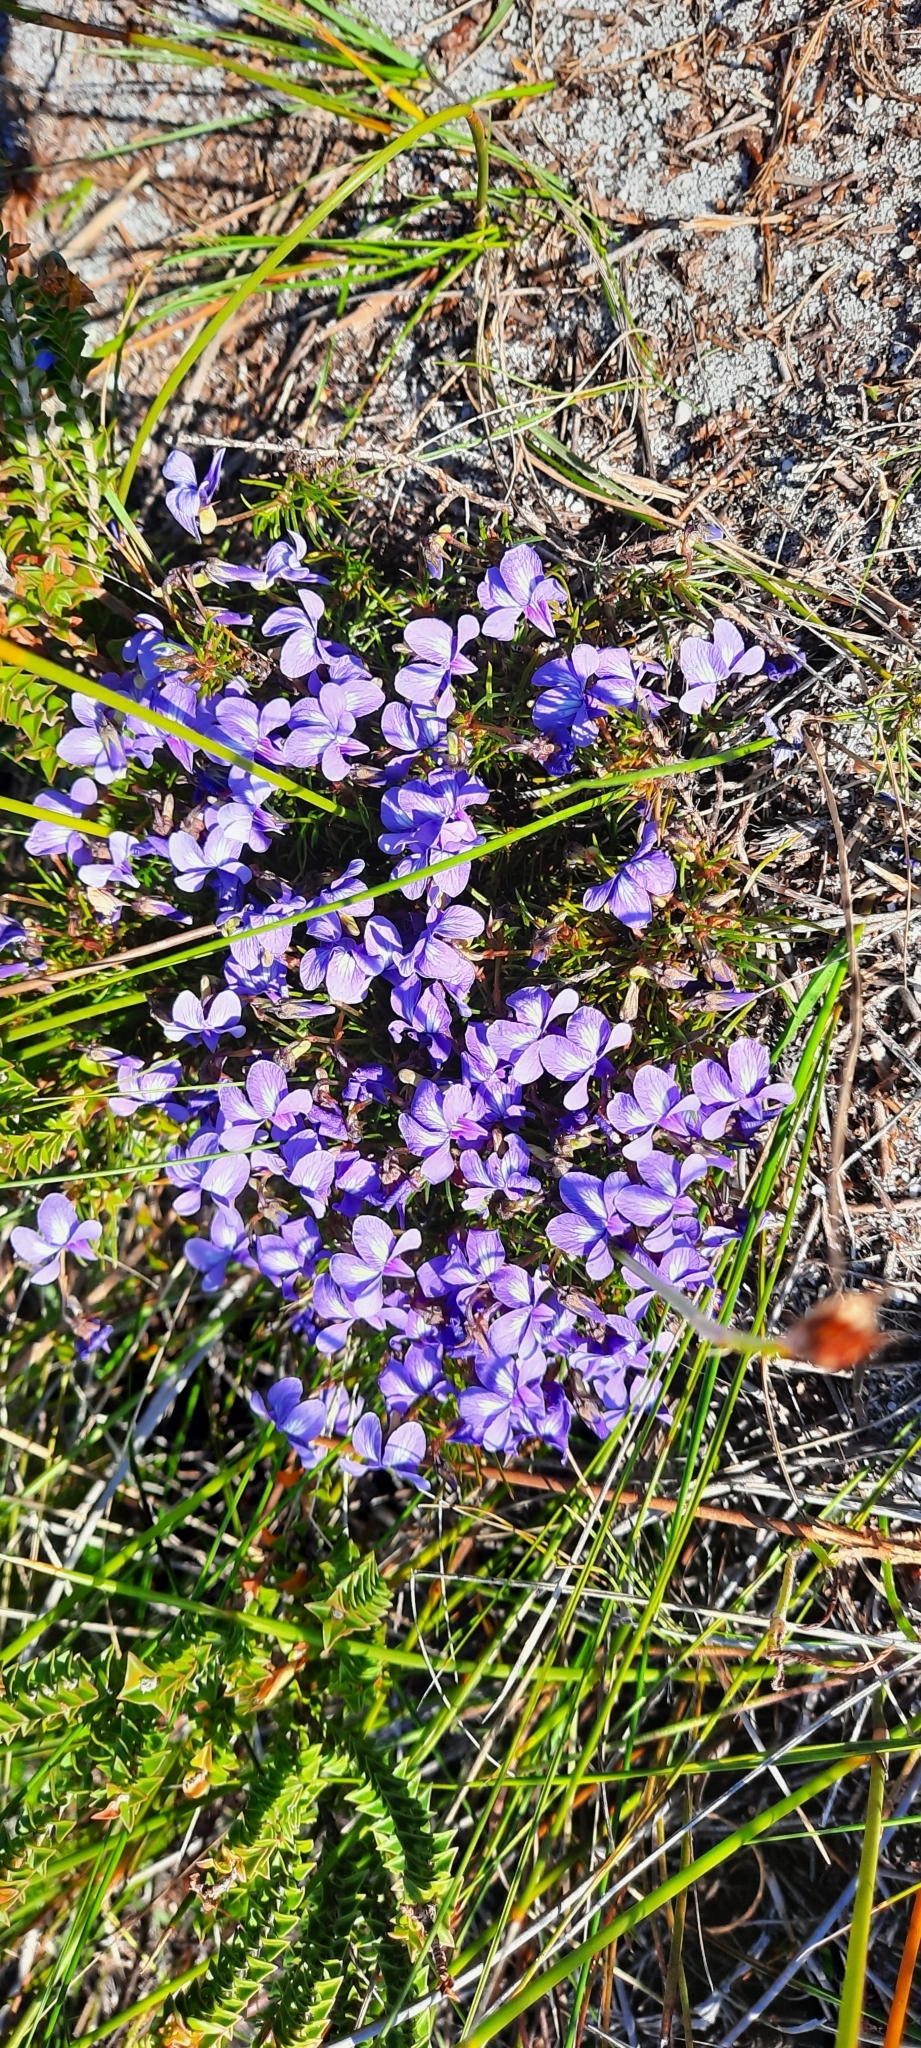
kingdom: Plantae
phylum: Tracheophyta
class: Magnoliopsida
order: Malpighiales
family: Violaceae
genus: Viola
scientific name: Viola decumbens
